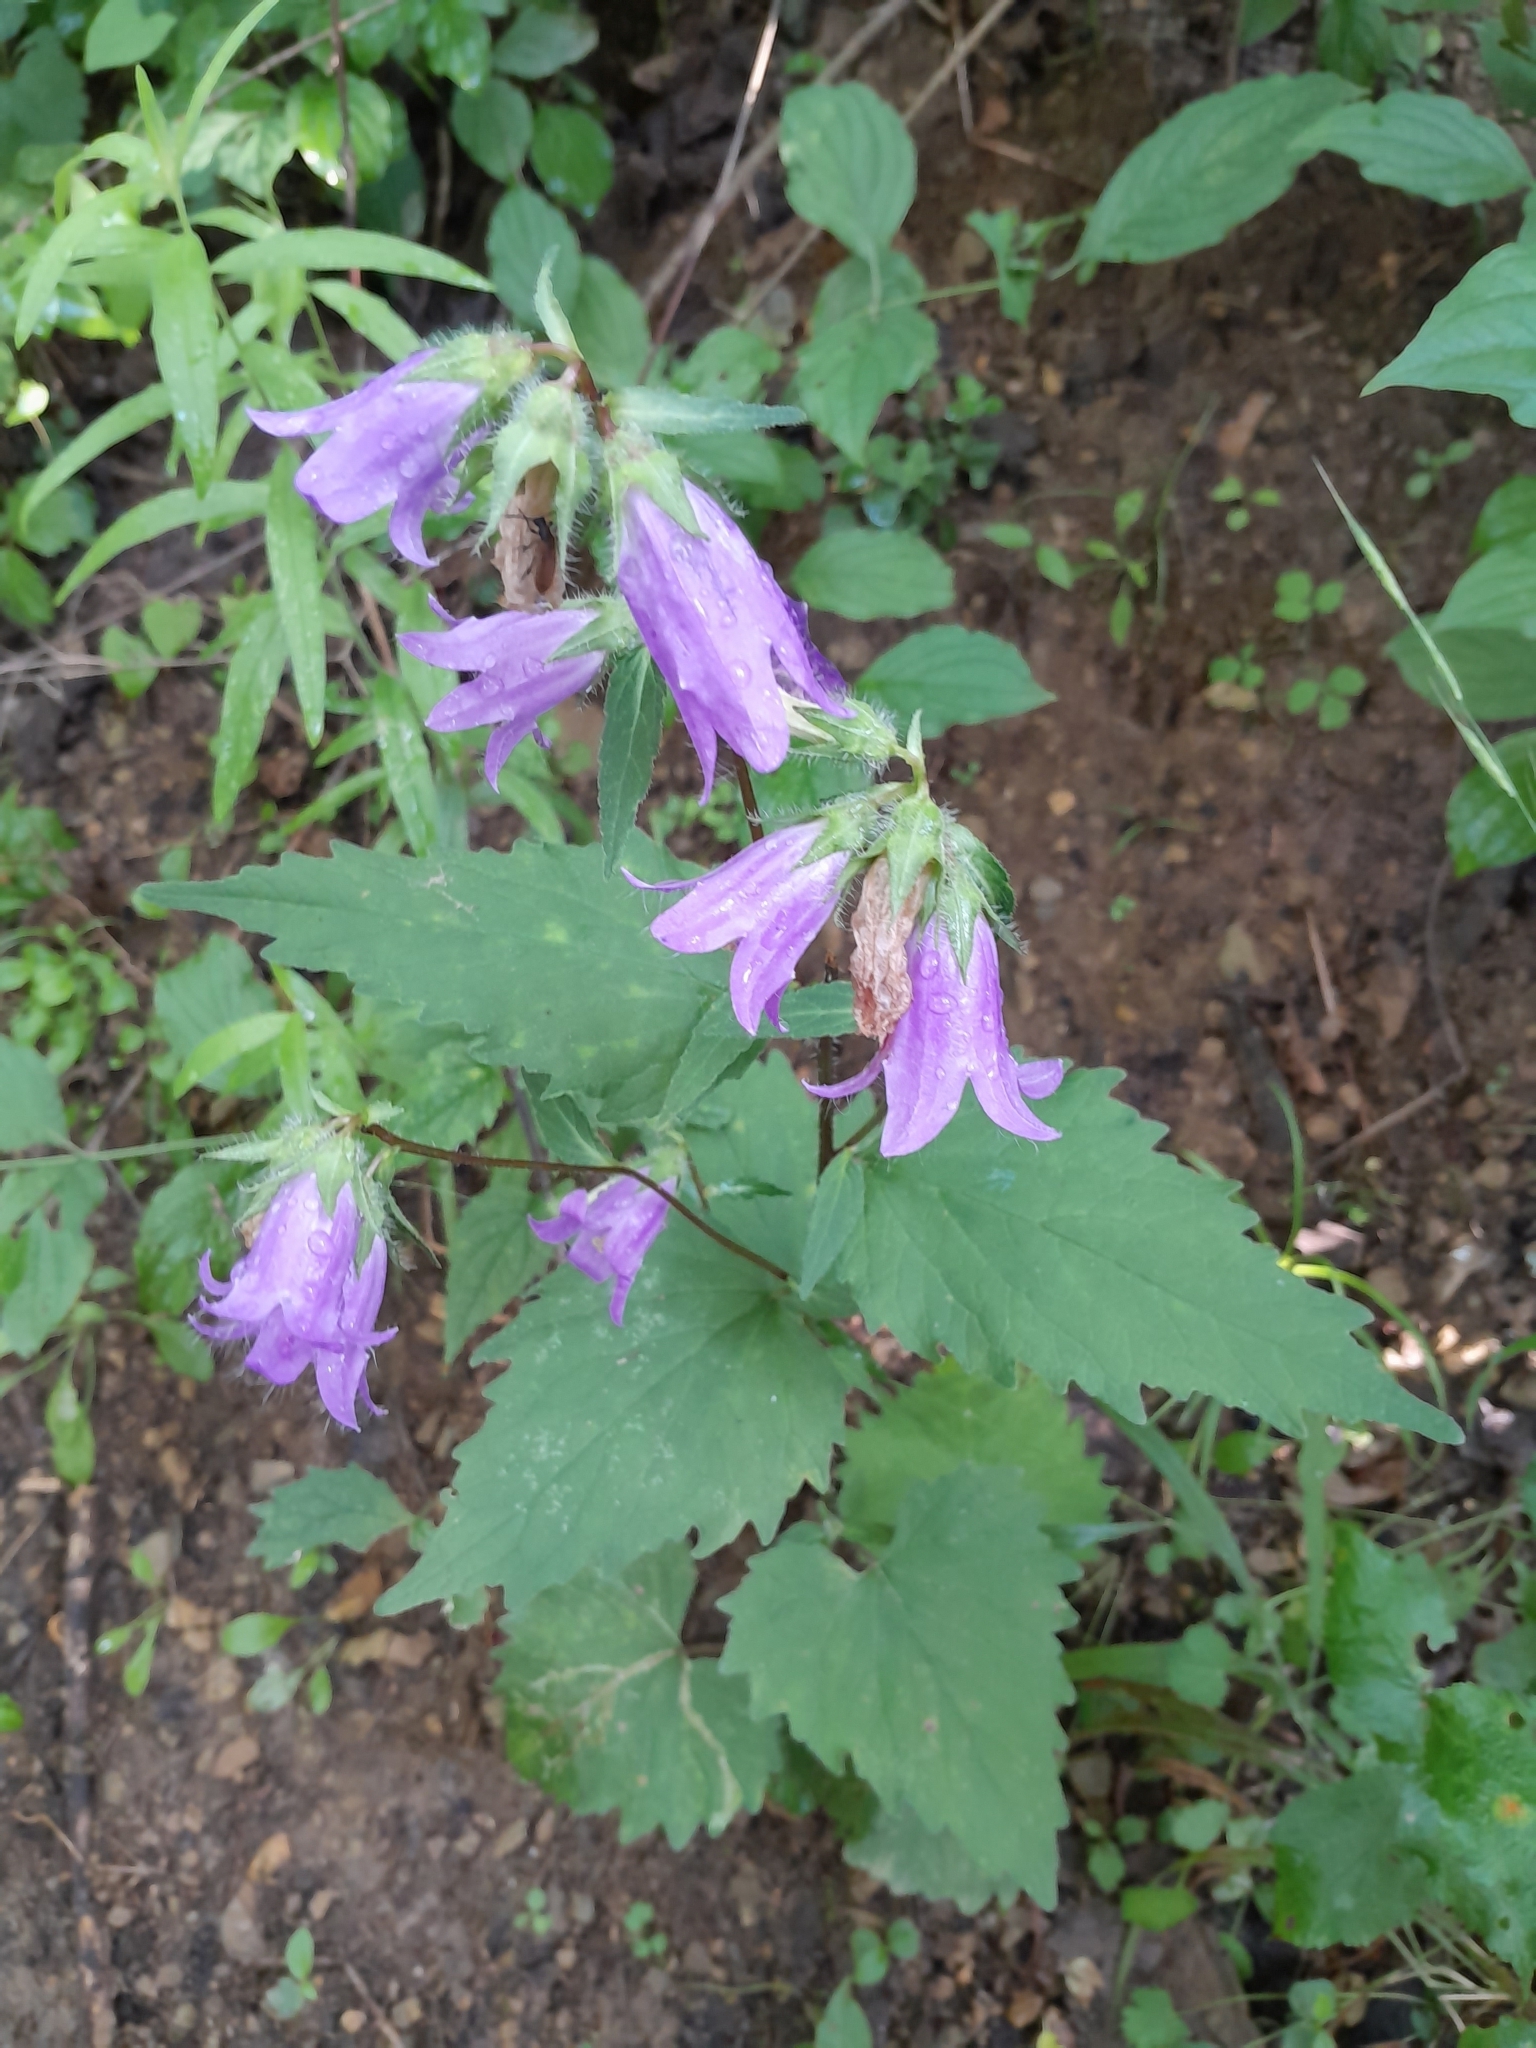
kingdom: Plantae
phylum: Tracheophyta
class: Magnoliopsida
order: Asterales
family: Campanulaceae
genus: Campanula
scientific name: Campanula trachelium
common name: Nettle-leaved bellflower
